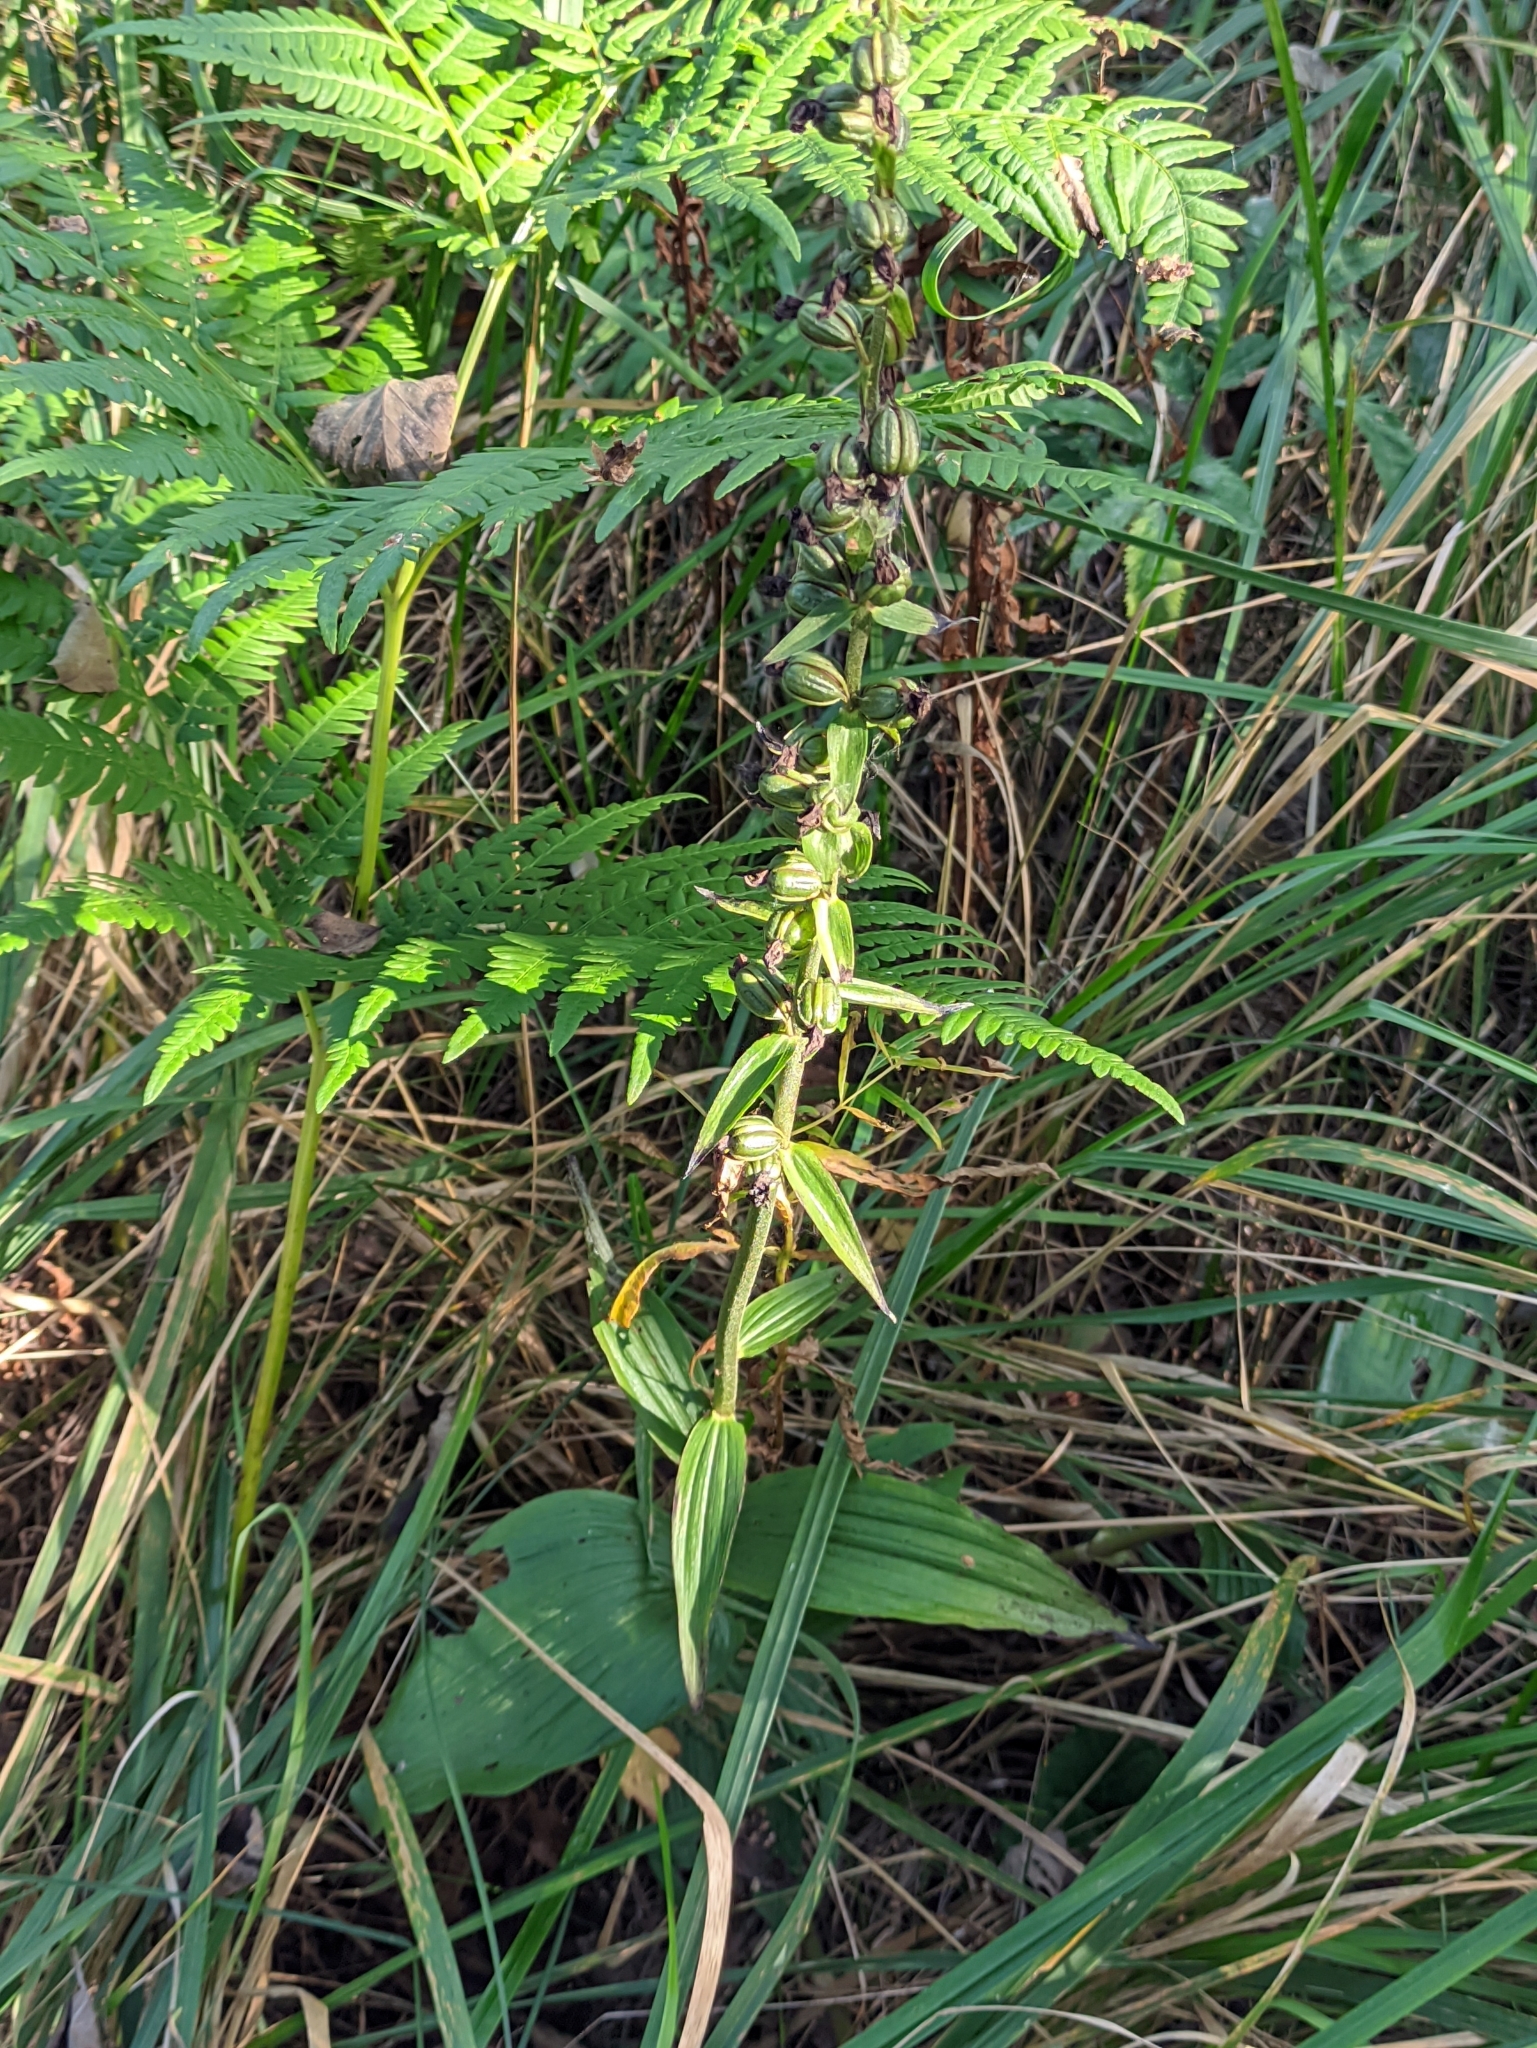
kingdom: Plantae
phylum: Tracheophyta
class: Liliopsida
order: Asparagales
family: Orchidaceae
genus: Epipactis
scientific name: Epipactis helleborine
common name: Broad-leaved helleborine
